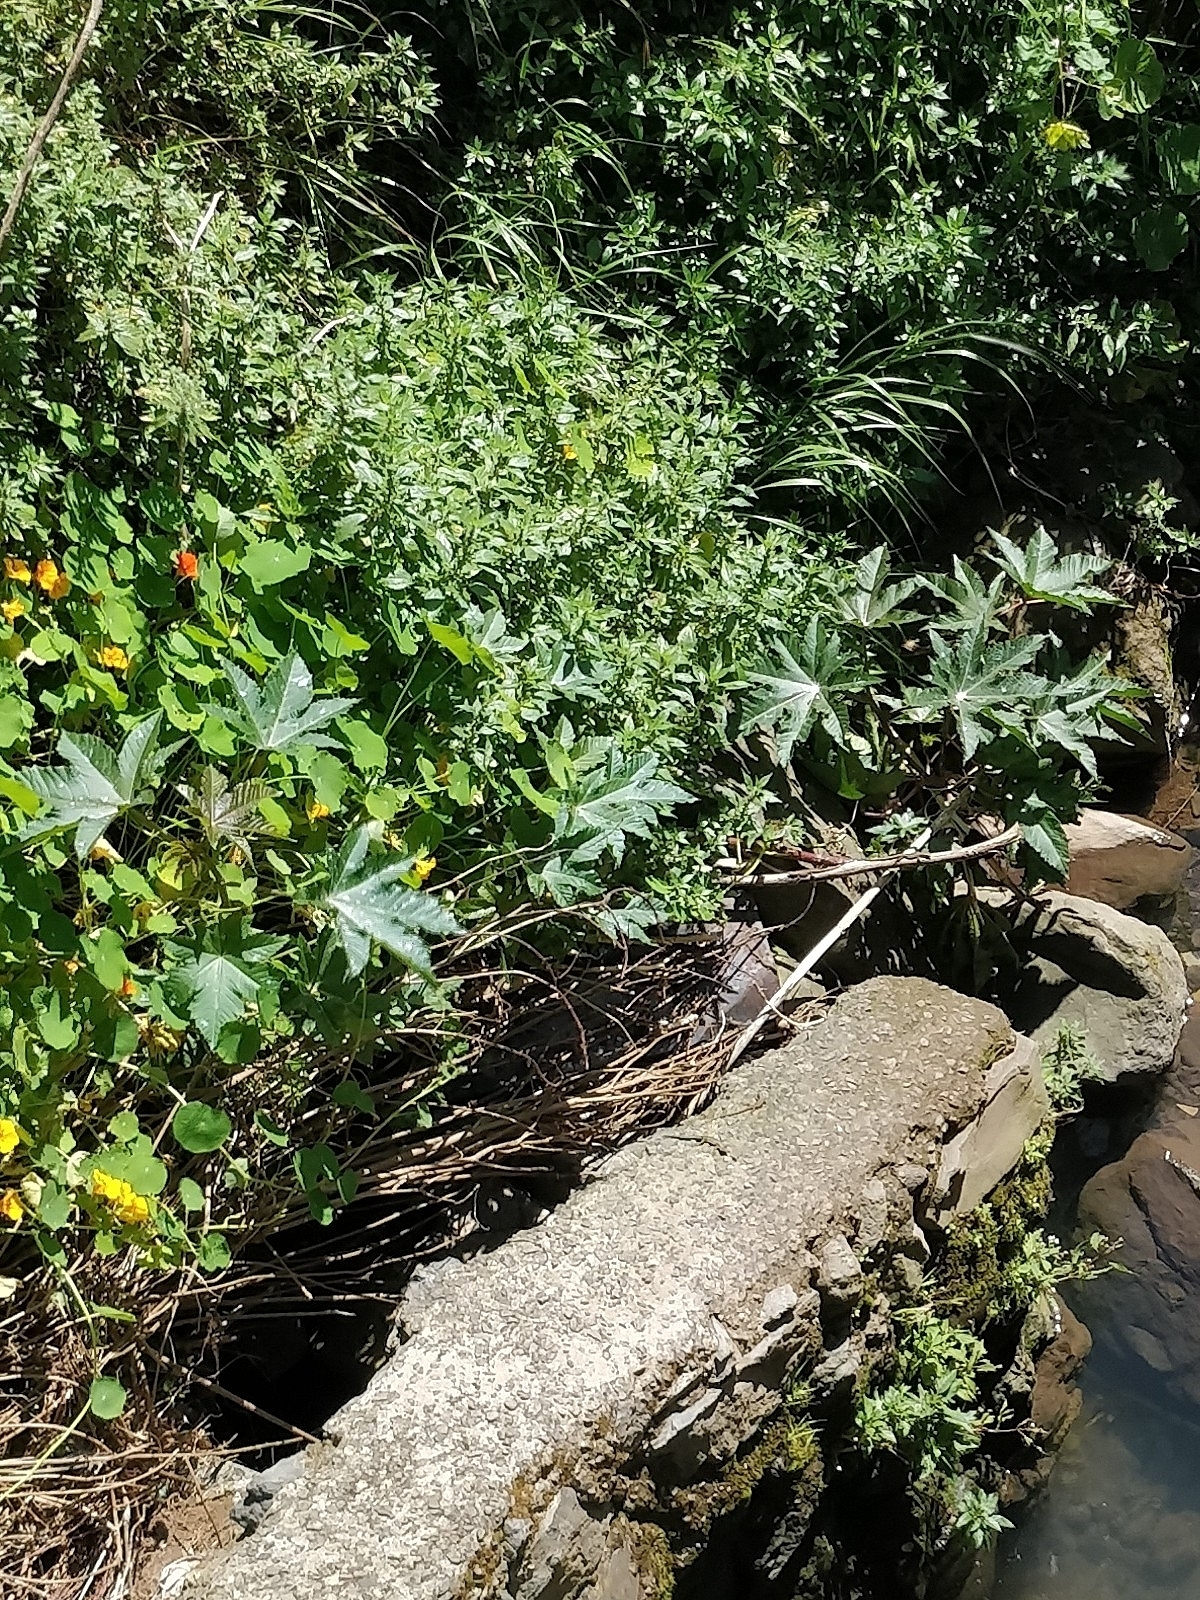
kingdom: Plantae
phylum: Tracheophyta
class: Magnoliopsida
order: Malpighiales
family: Euphorbiaceae
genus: Ricinus
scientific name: Ricinus communis
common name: Castor-oil-plant
